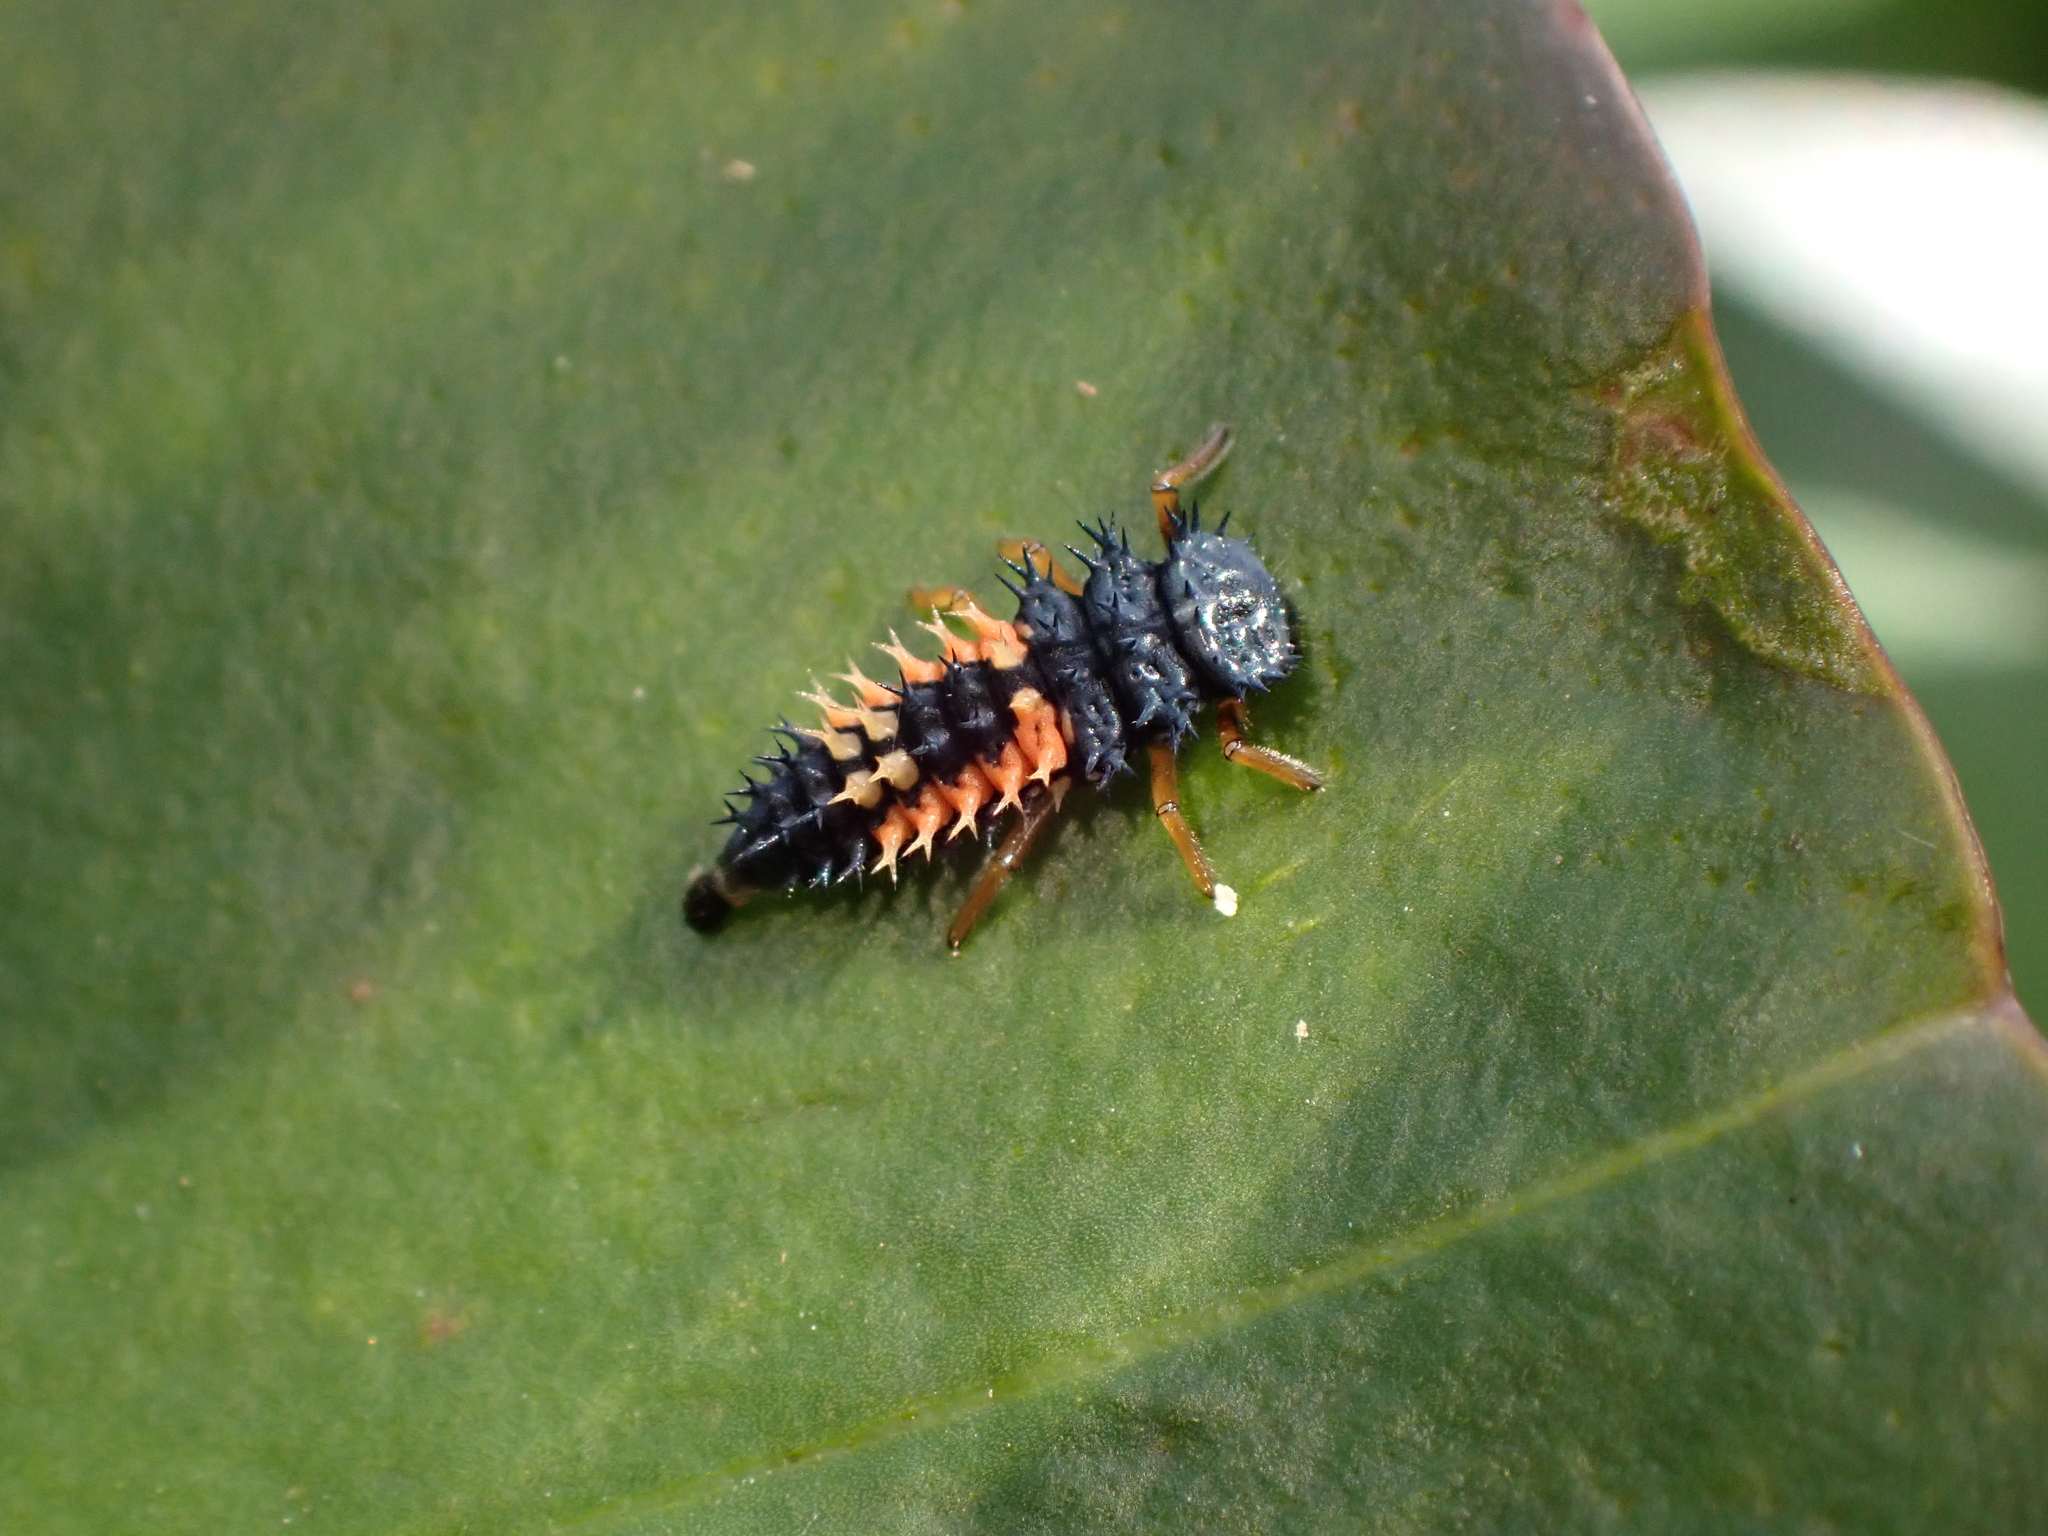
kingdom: Animalia
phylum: Arthropoda
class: Insecta
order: Coleoptera
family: Coccinellidae
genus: Harmonia
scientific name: Harmonia axyridis
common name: Harlequin ladybird
